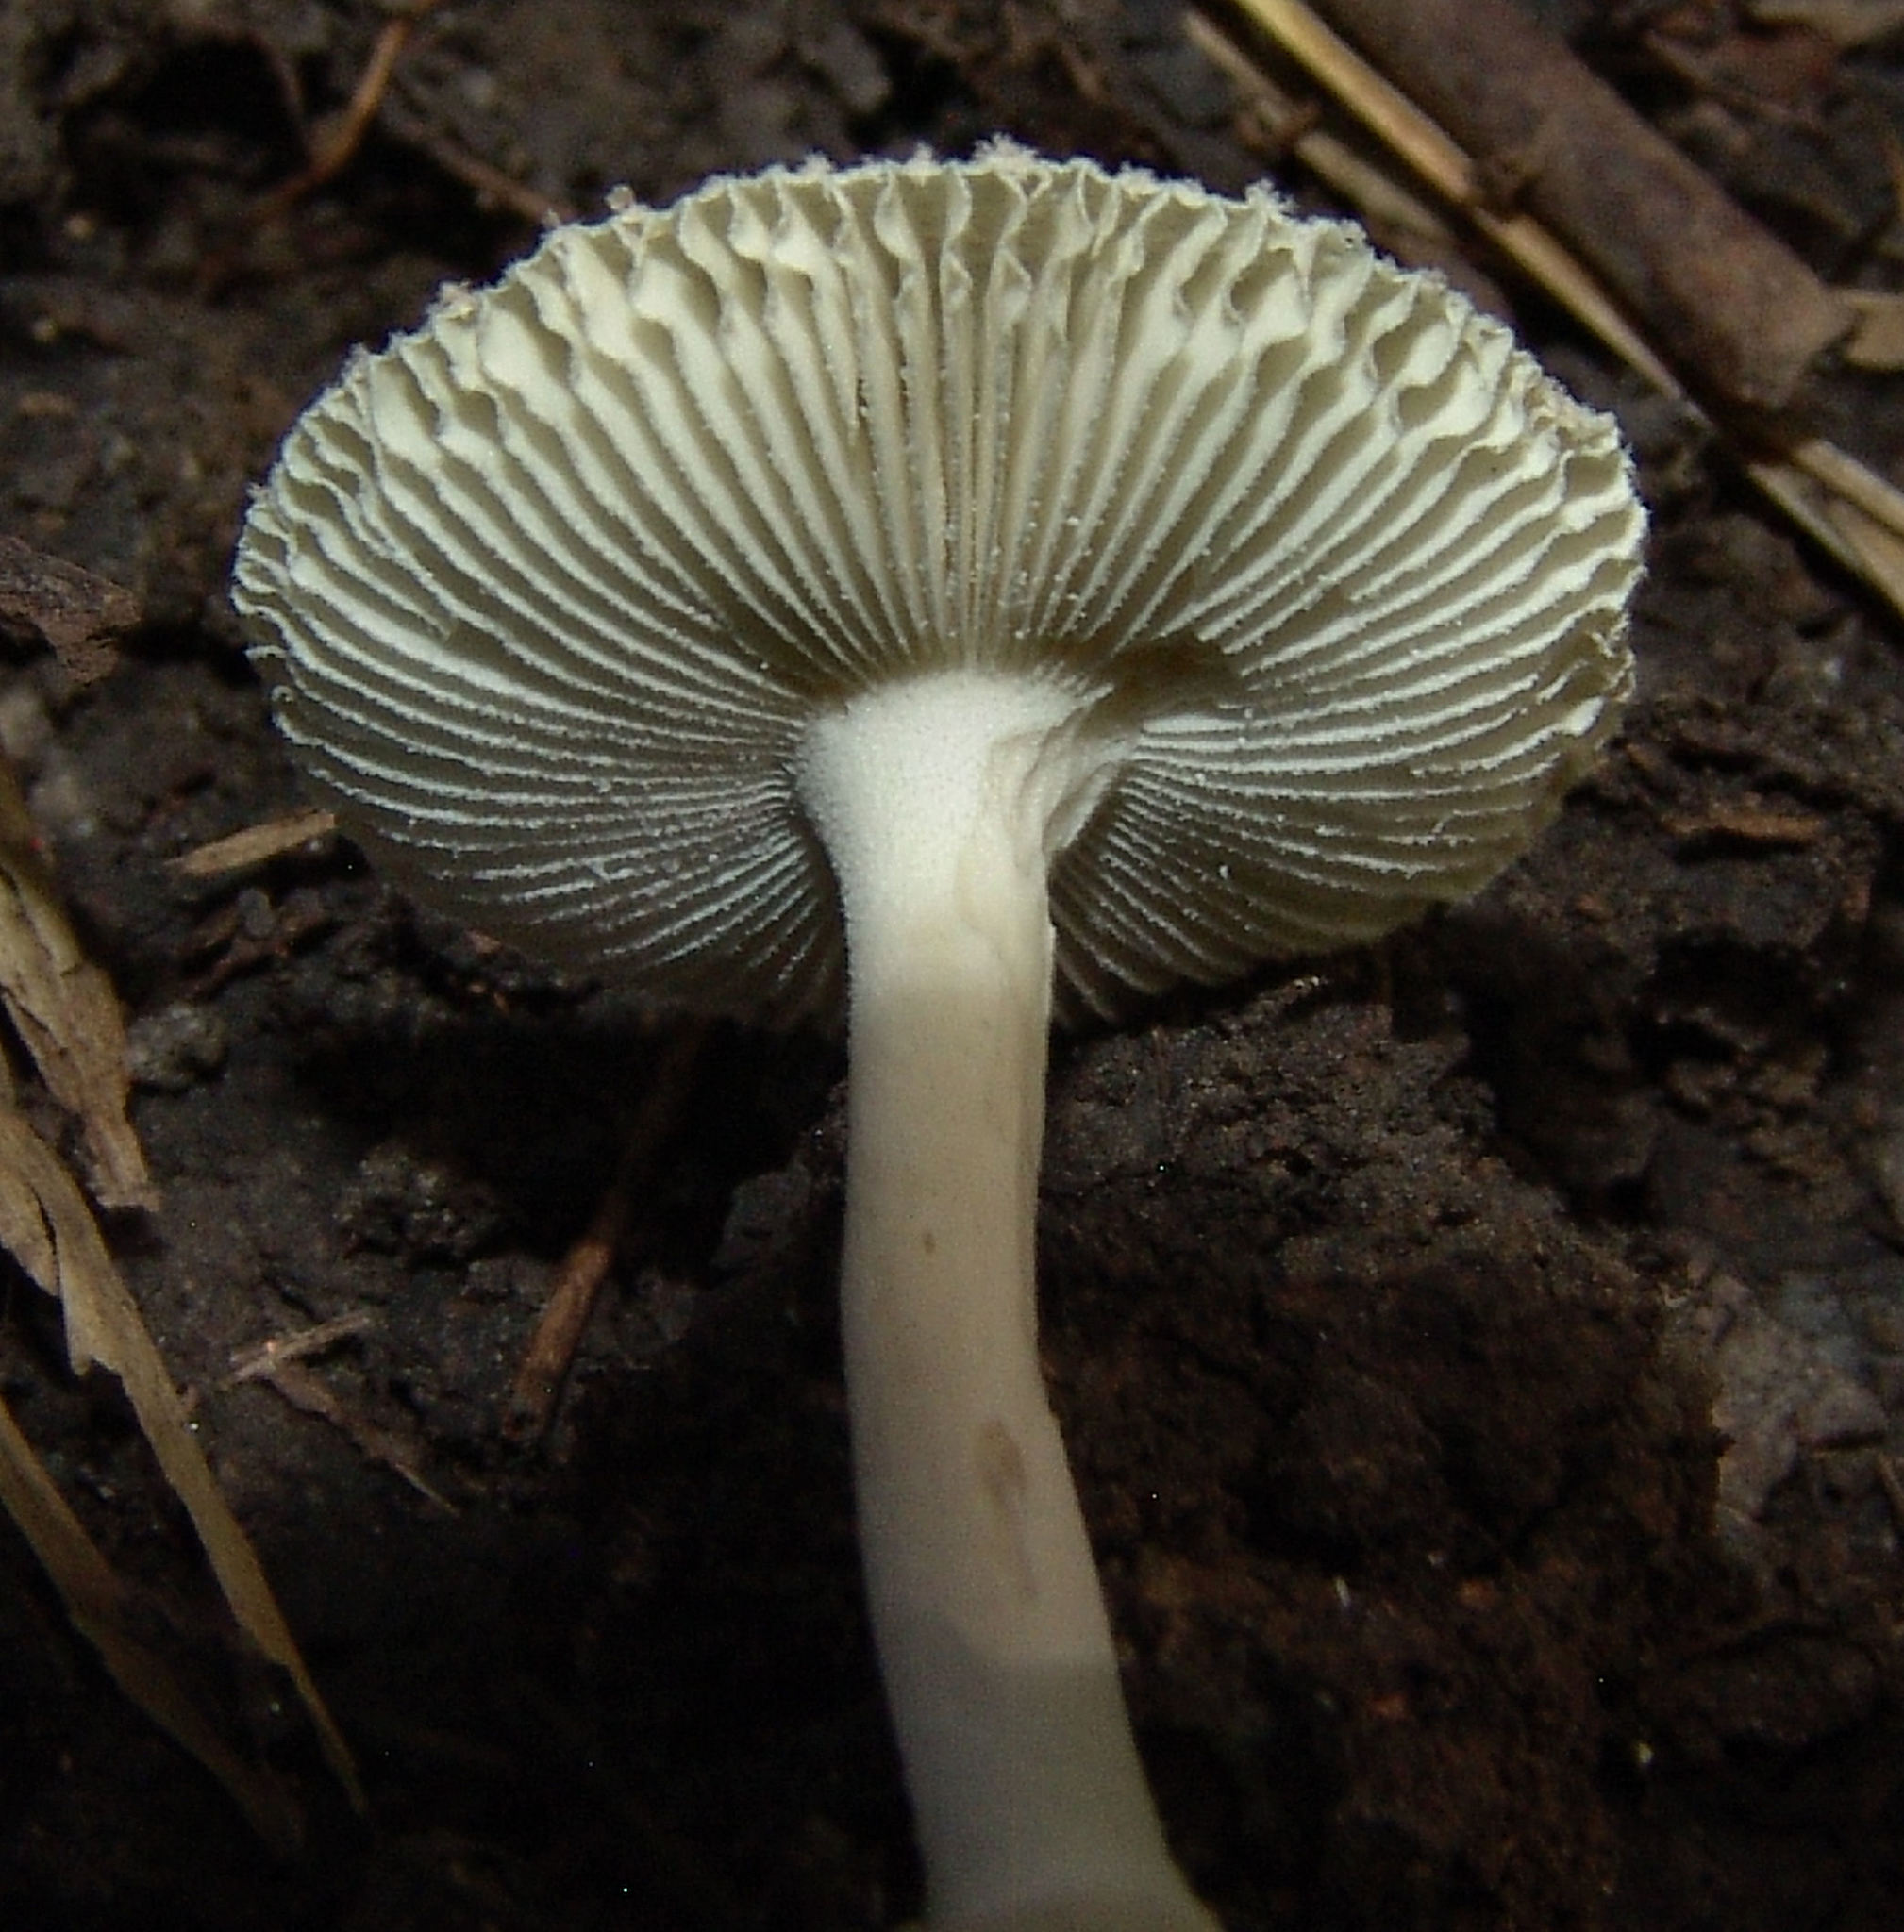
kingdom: Fungi
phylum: Basidiomycota
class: Agaricomycetes
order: Agaricales
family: Amanitaceae
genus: Amanita
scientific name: Amanita farinosa
